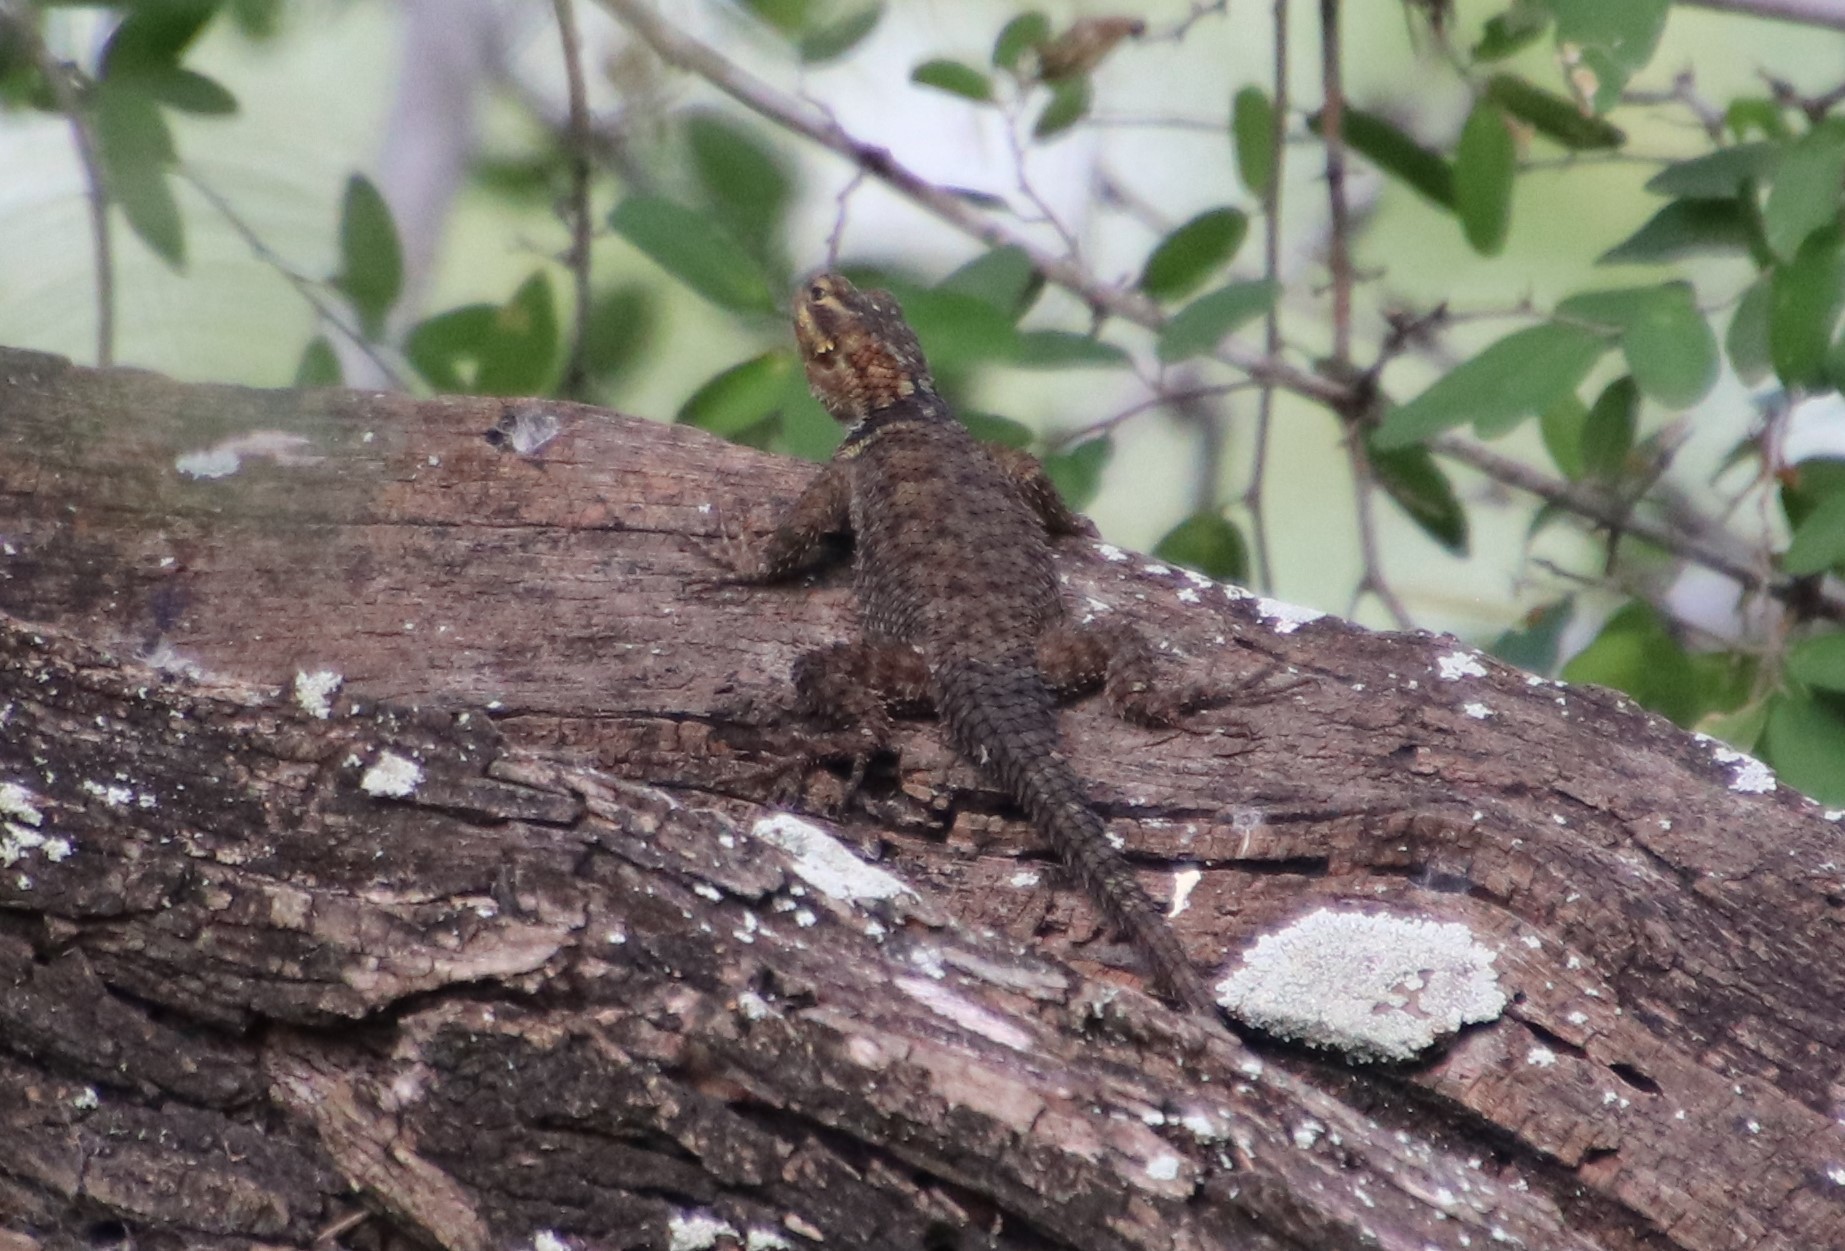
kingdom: Animalia
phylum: Chordata
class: Squamata
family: Phrynosomatidae
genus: Sceloporus
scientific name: Sceloporus cyanogenys
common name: Blue spiny lizard
